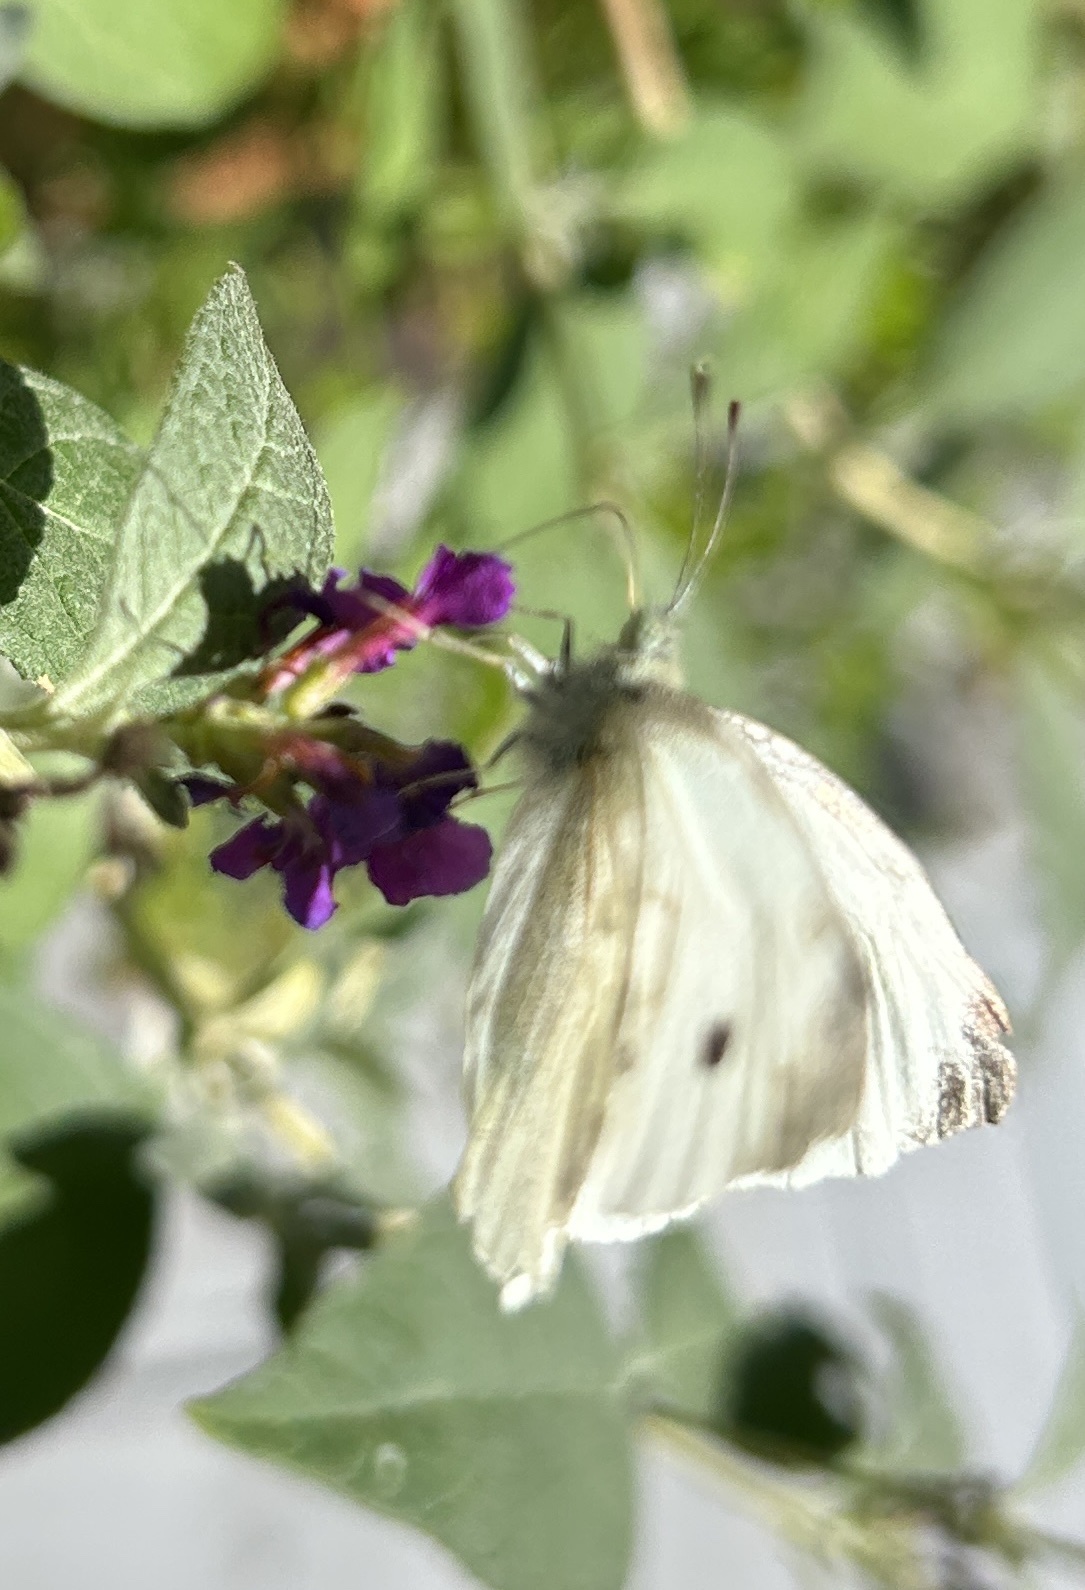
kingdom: Animalia
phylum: Arthropoda
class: Insecta
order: Lepidoptera
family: Pieridae
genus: Pieris
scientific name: Pieris rapae
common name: Small white
